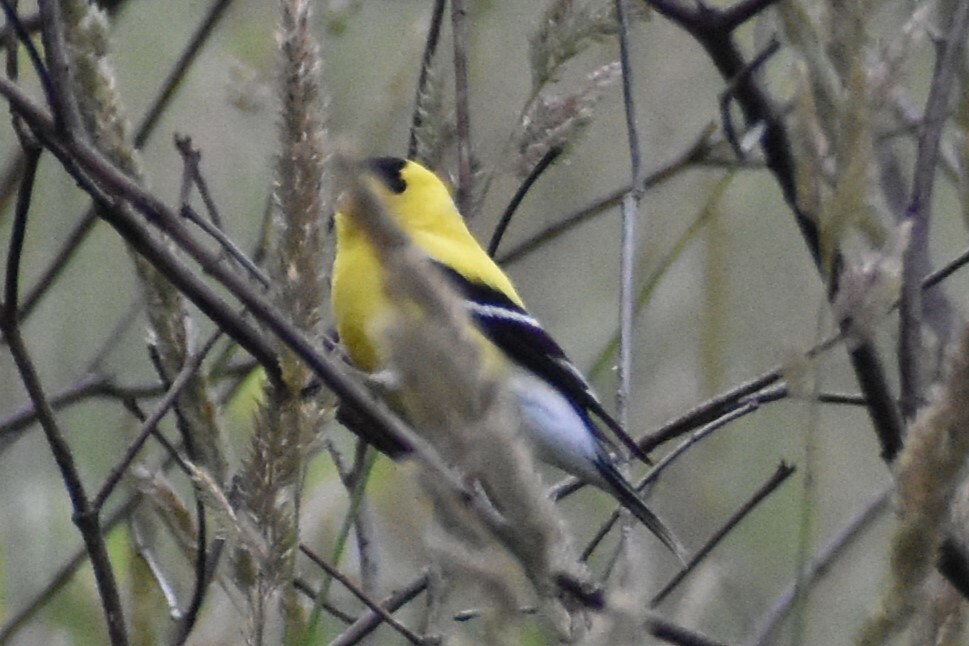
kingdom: Animalia
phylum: Chordata
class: Aves
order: Passeriformes
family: Fringillidae
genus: Spinus
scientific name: Spinus tristis
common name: American goldfinch
